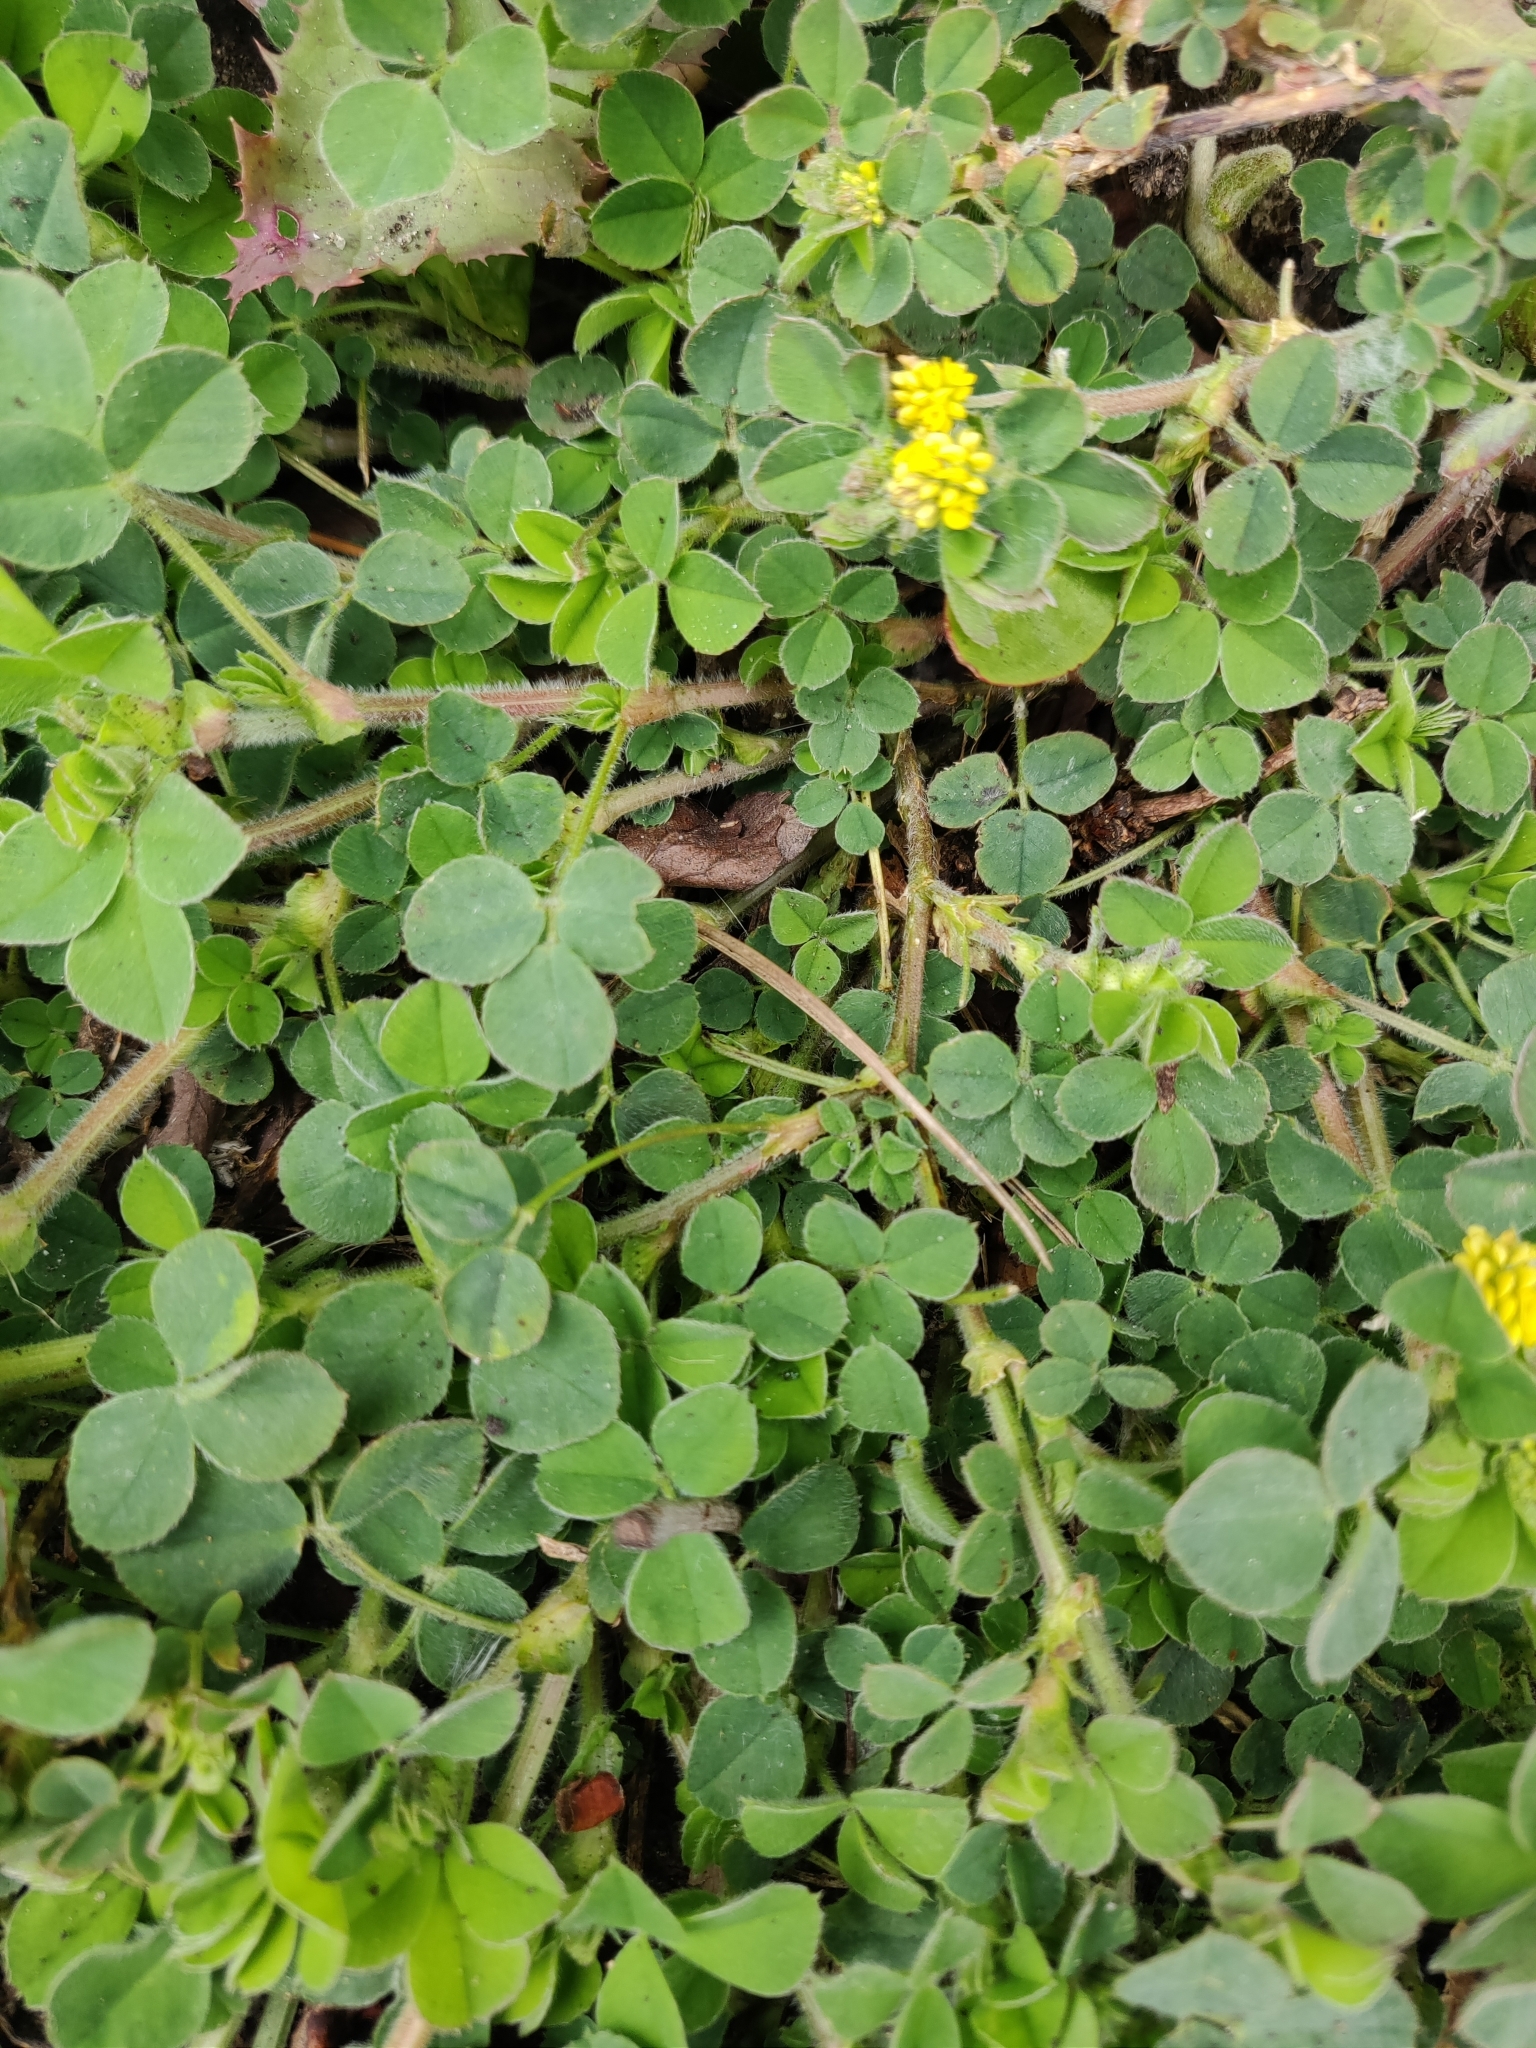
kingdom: Plantae
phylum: Tracheophyta
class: Magnoliopsida
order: Fabales
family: Fabaceae
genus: Medicago
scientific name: Medicago lupulina
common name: Black medick
